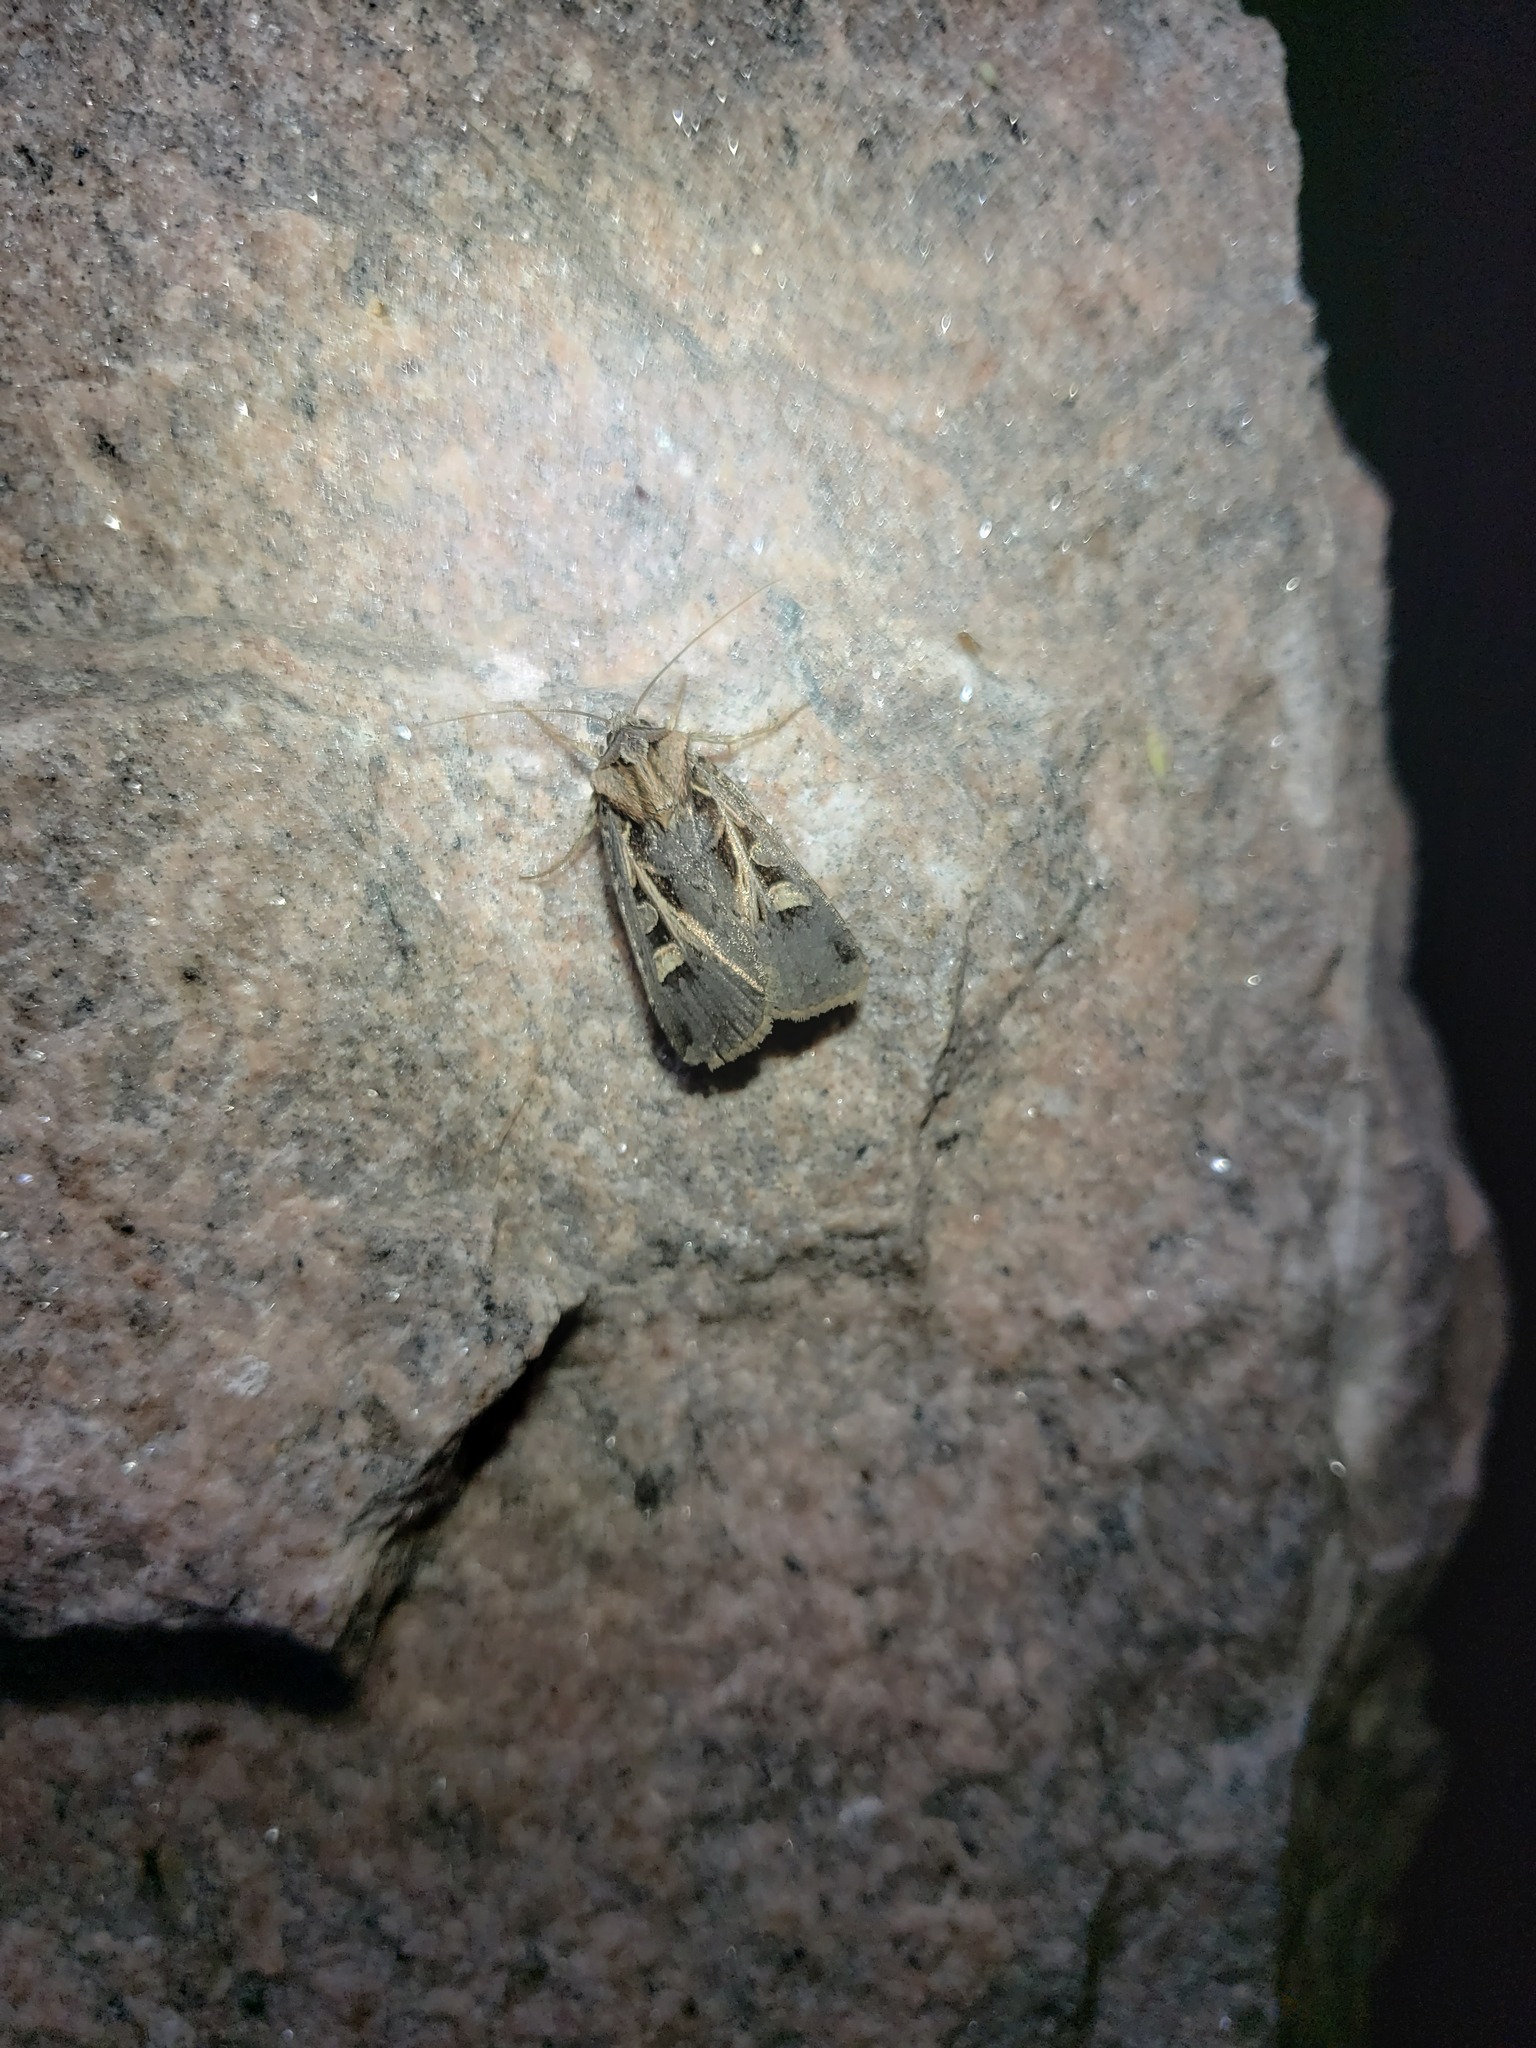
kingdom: Animalia
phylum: Arthropoda
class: Insecta
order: Lepidoptera
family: Noctuidae
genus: Feltia
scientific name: Feltia herilis
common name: Master's dart
